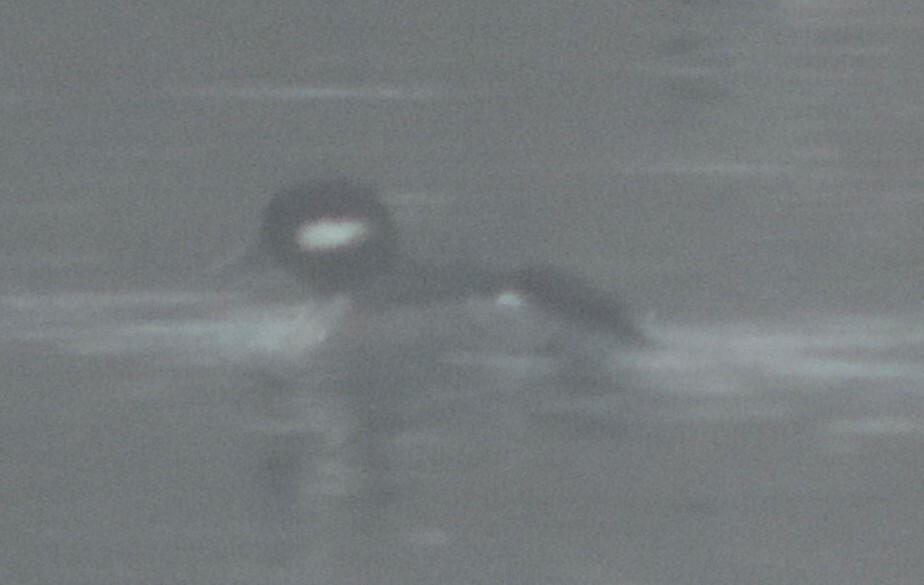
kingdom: Animalia
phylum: Chordata
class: Aves
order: Anseriformes
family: Anatidae
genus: Bucephala
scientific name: Bucephala albeola
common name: Bufflehead
